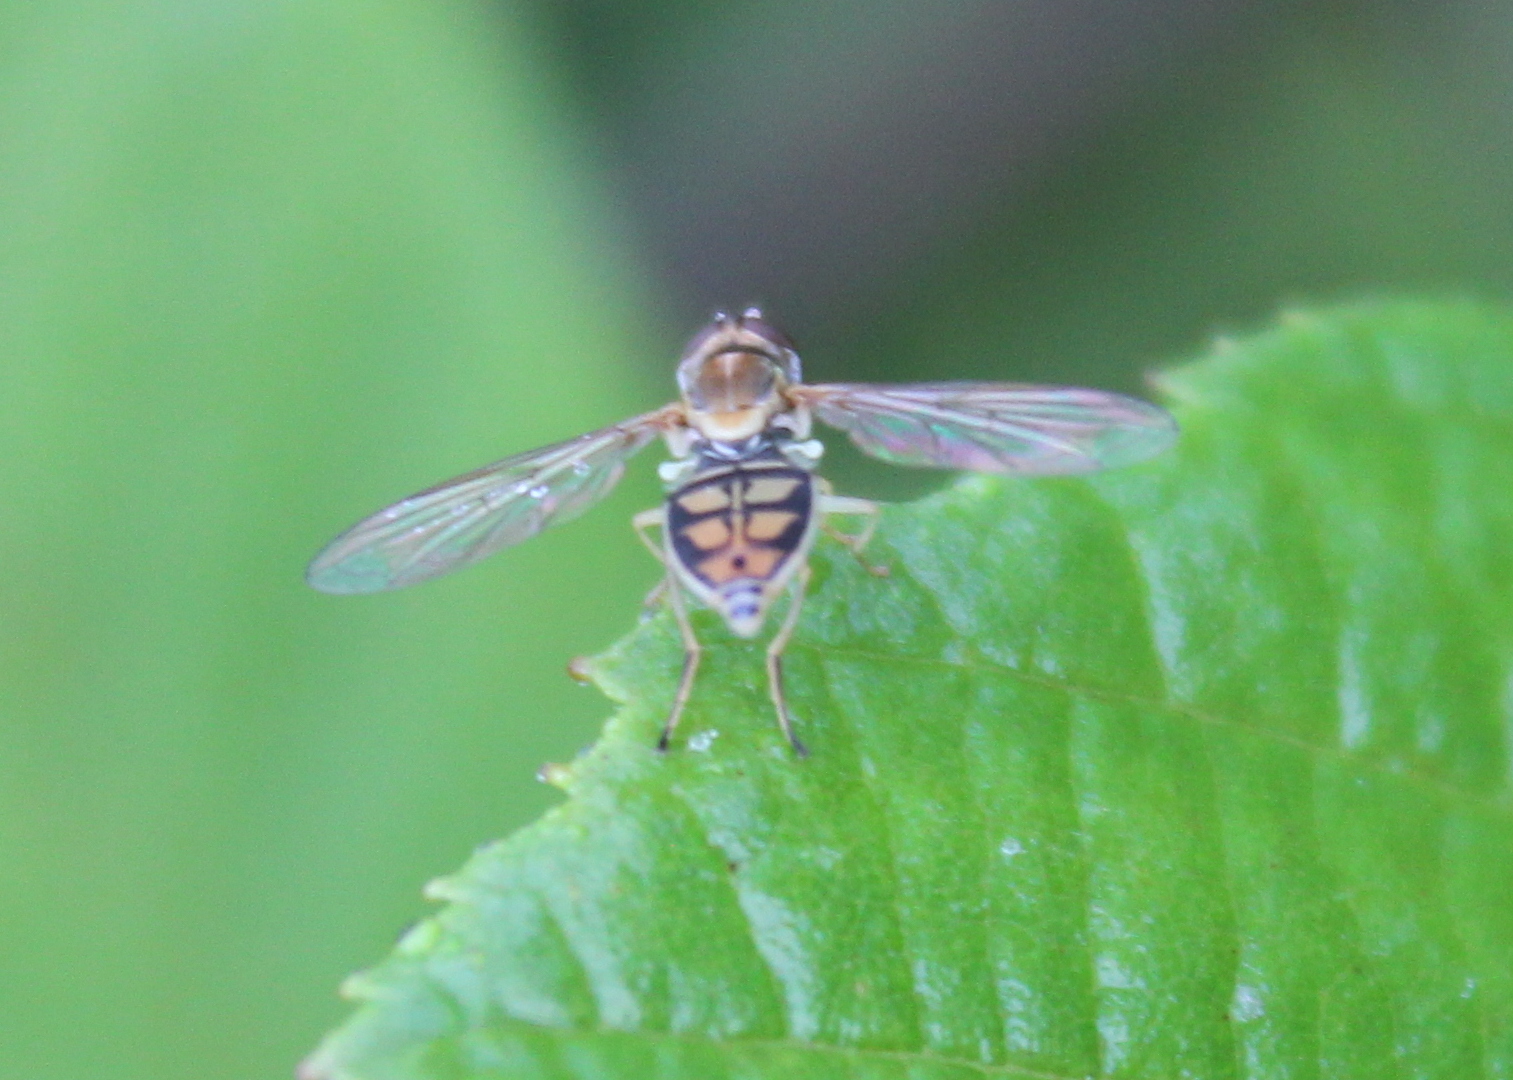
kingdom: Animalia
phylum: Arthropoda
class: Insecta
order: Diptera
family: Syrphidae
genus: Toxomerus
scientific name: Toxomerus marginatus
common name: Syrphid fly
